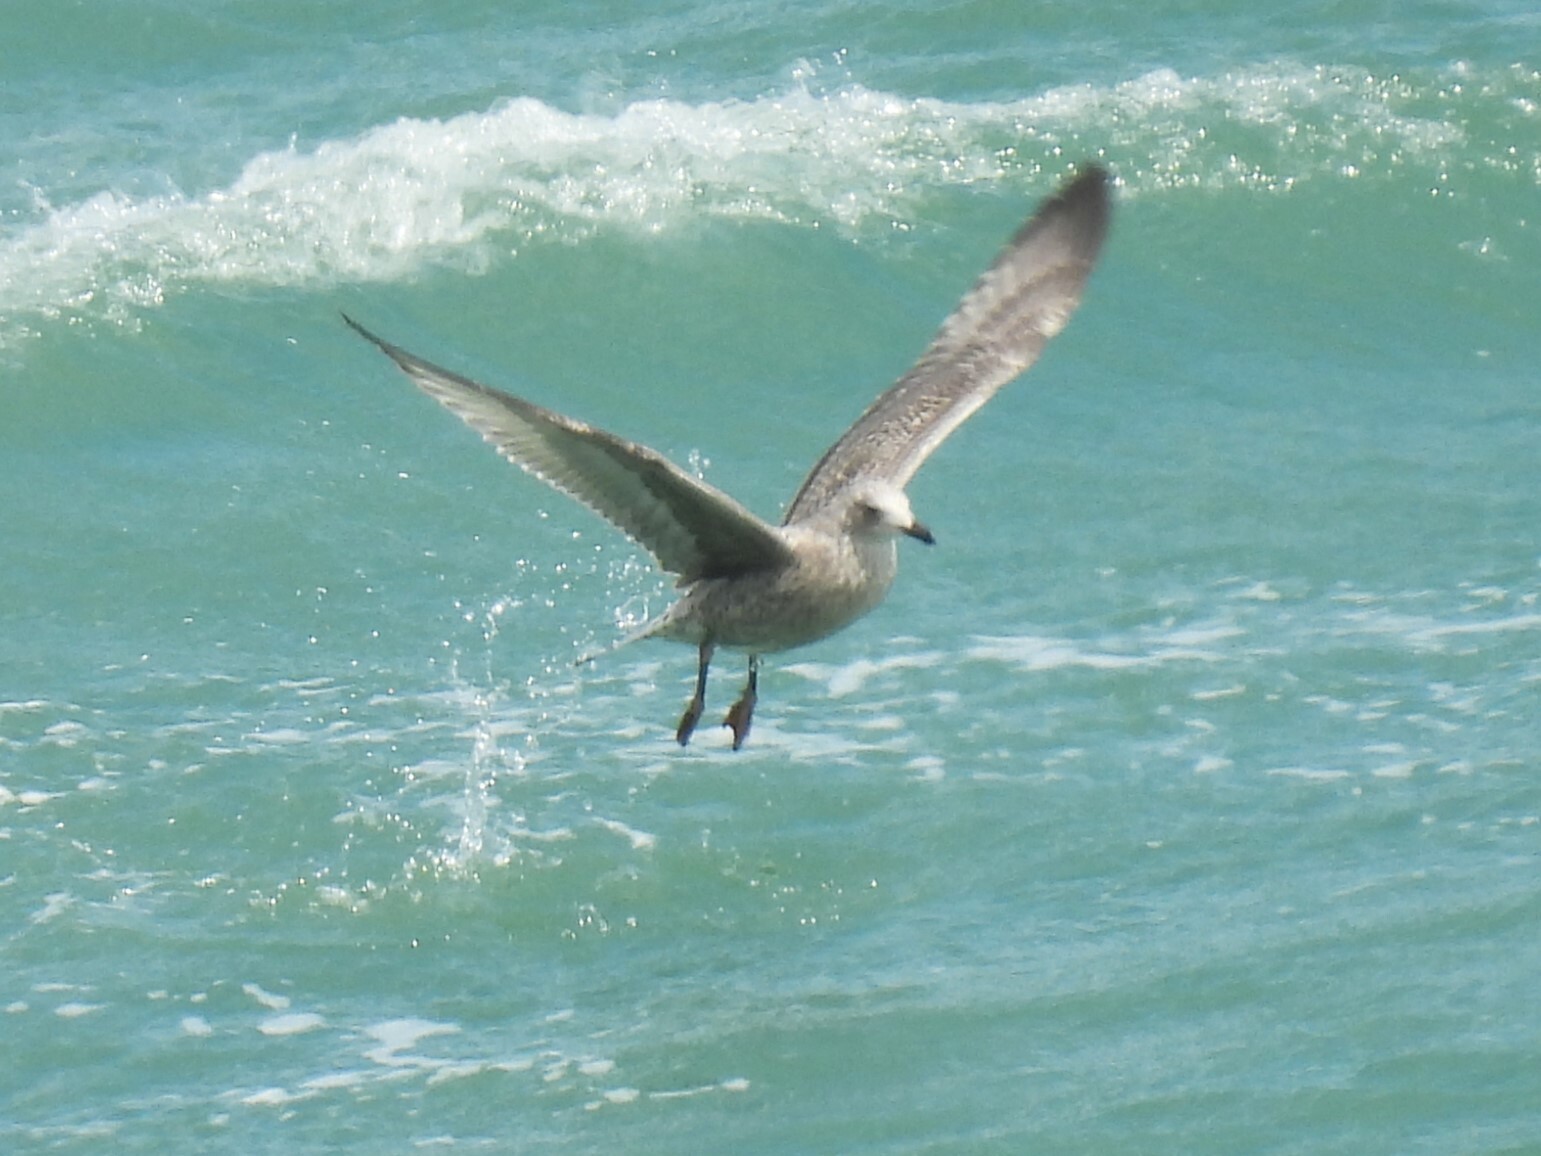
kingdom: Animalia
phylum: Chordata
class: Aves
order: Charadriiformes
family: Laridae
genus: Larus
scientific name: Larus argentatus
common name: Herring gull
